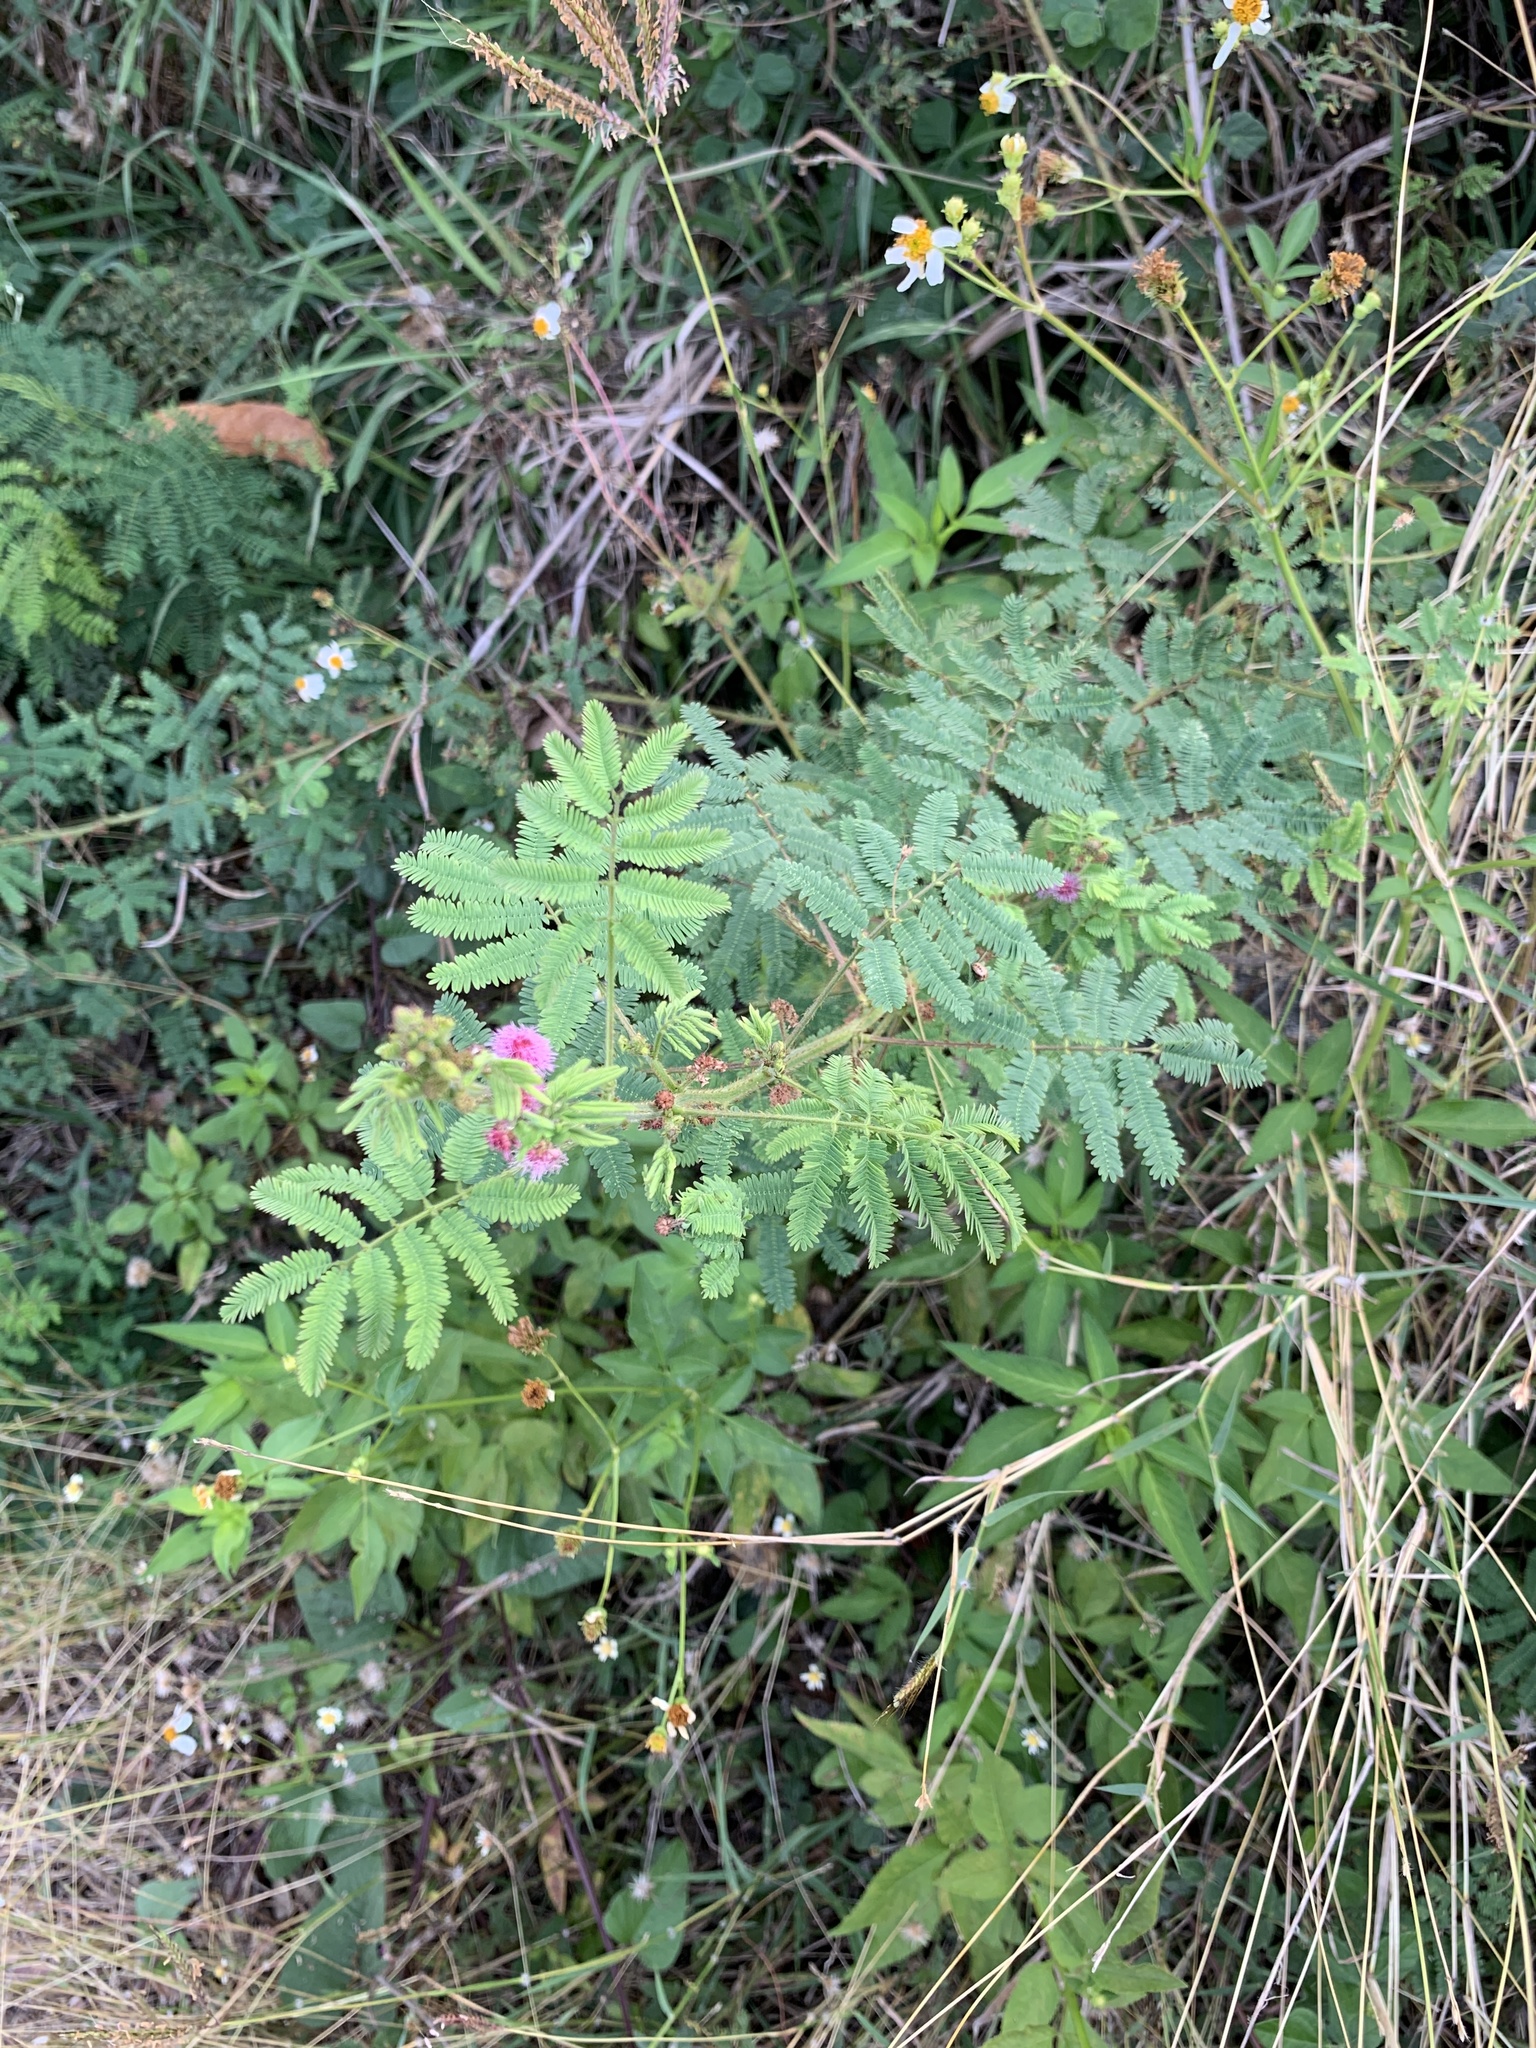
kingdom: Plantae
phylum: Tracheophyta
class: Magnoliopsida
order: Fabales
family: Fabaceae
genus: Mimosa
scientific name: Mimosa diplotricha
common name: Giant sensitive-plant
